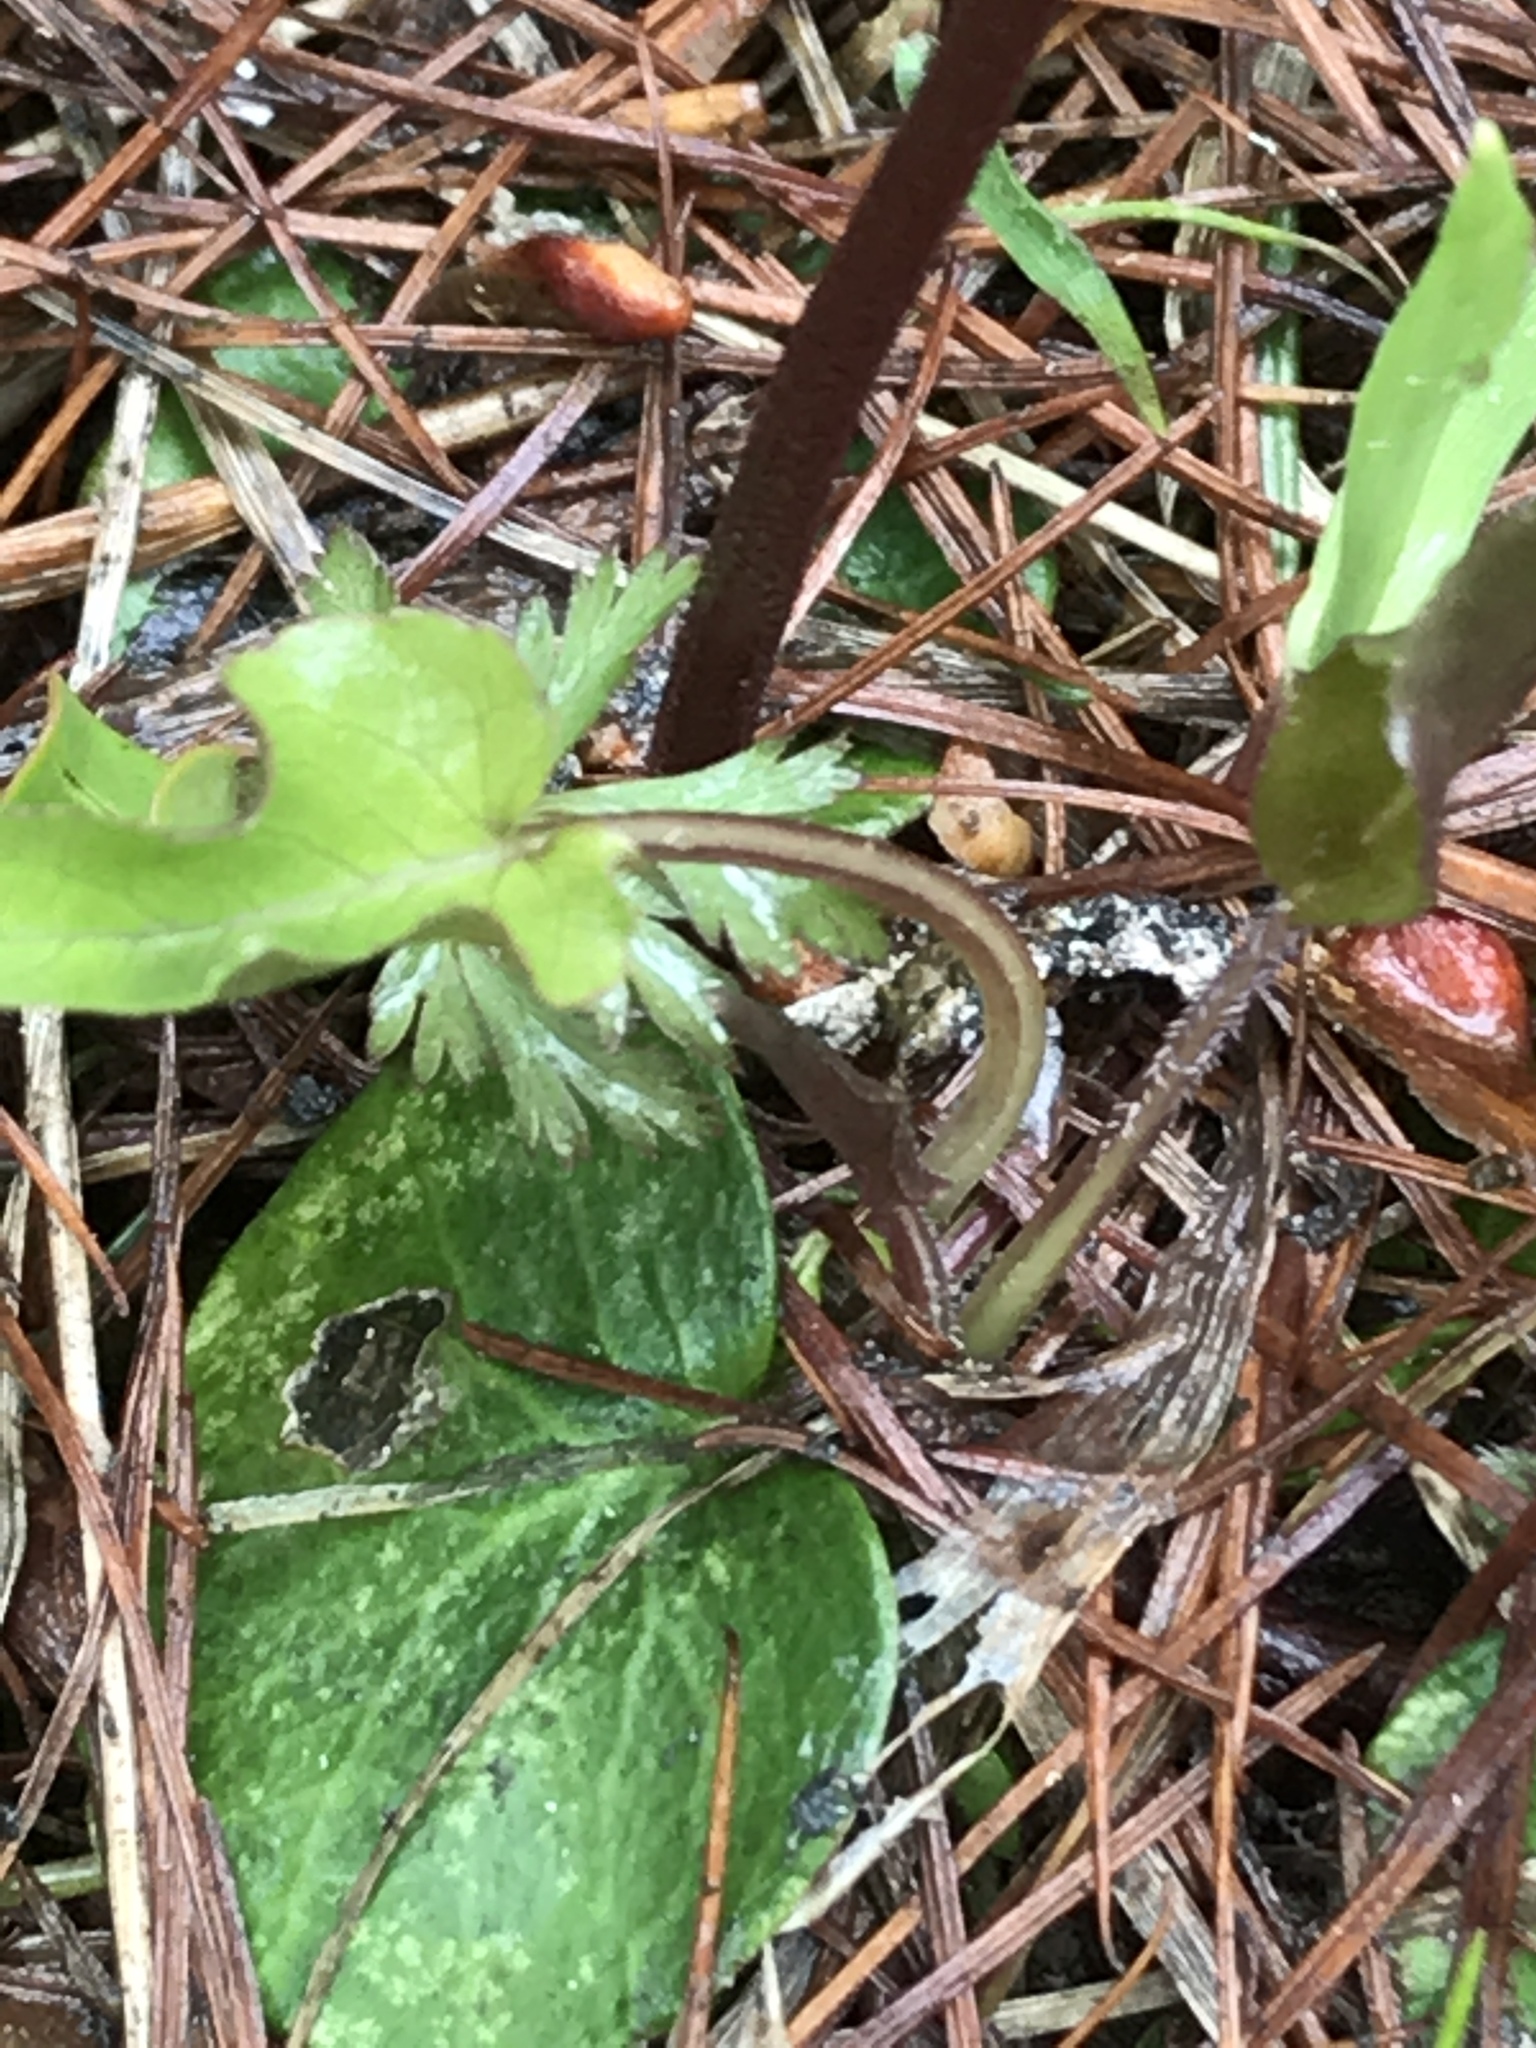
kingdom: Plantae
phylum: Tracheophyta
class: Magnoliopsida
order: Ericales
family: Primulaceae
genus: Soldanella
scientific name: Soldanella alpina
